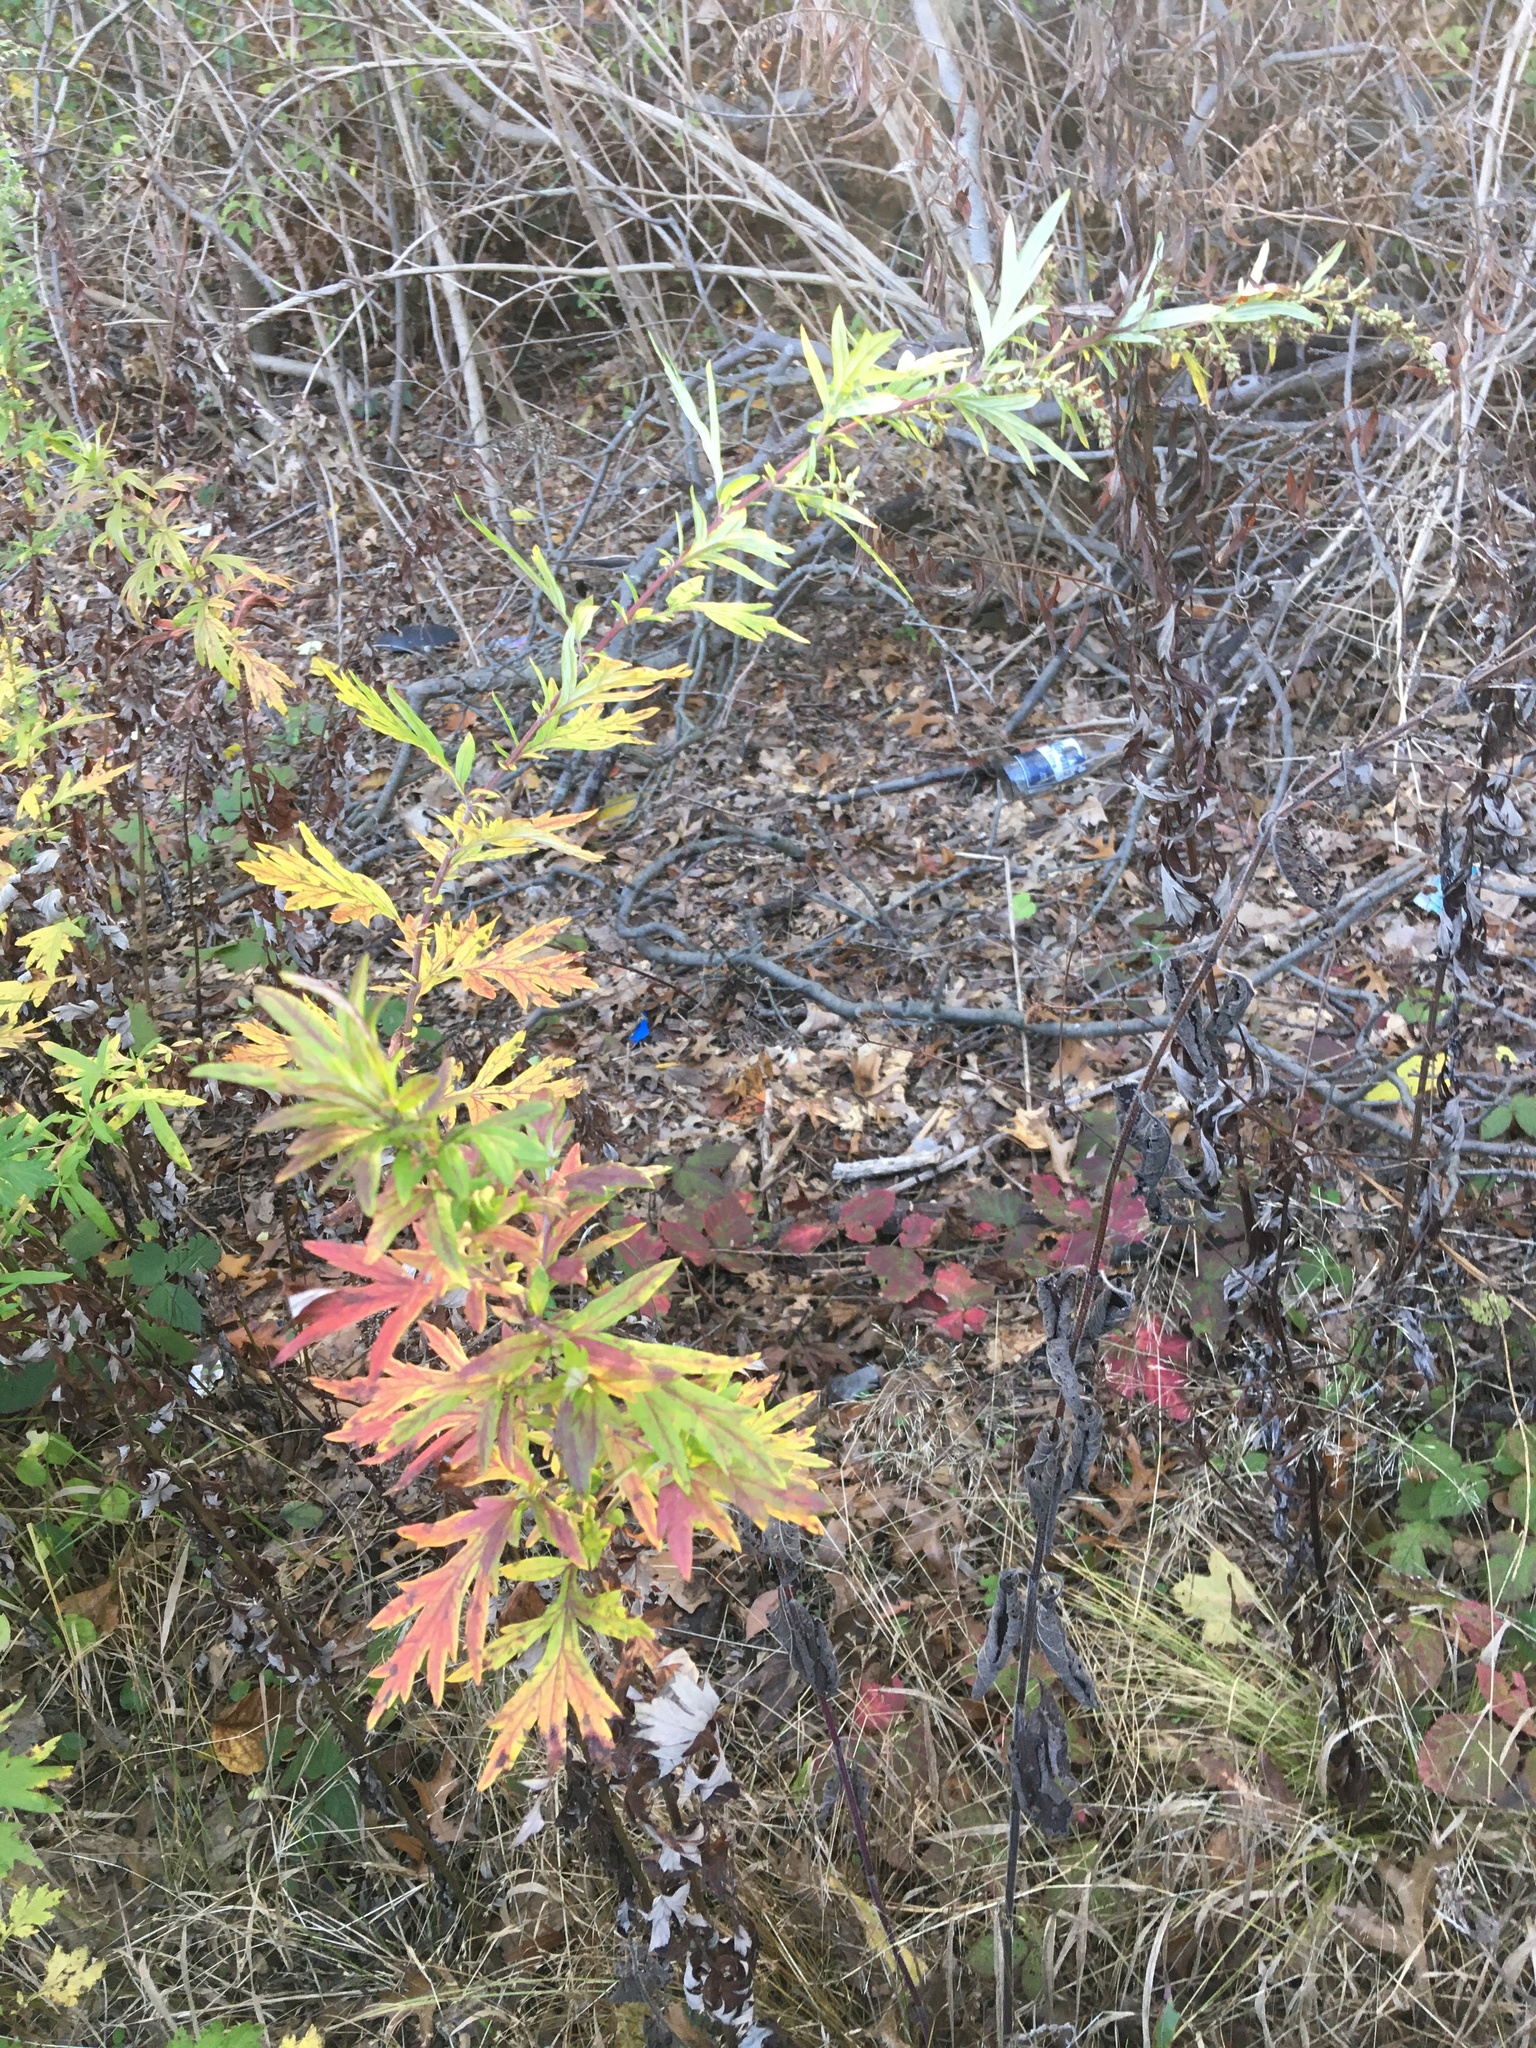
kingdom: Plantae
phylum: Tracheophyta
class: Magnoliopsida
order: Asterales
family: Asteraceae
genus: Artemisia
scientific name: Artemisia vulgaris
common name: Mugwort
